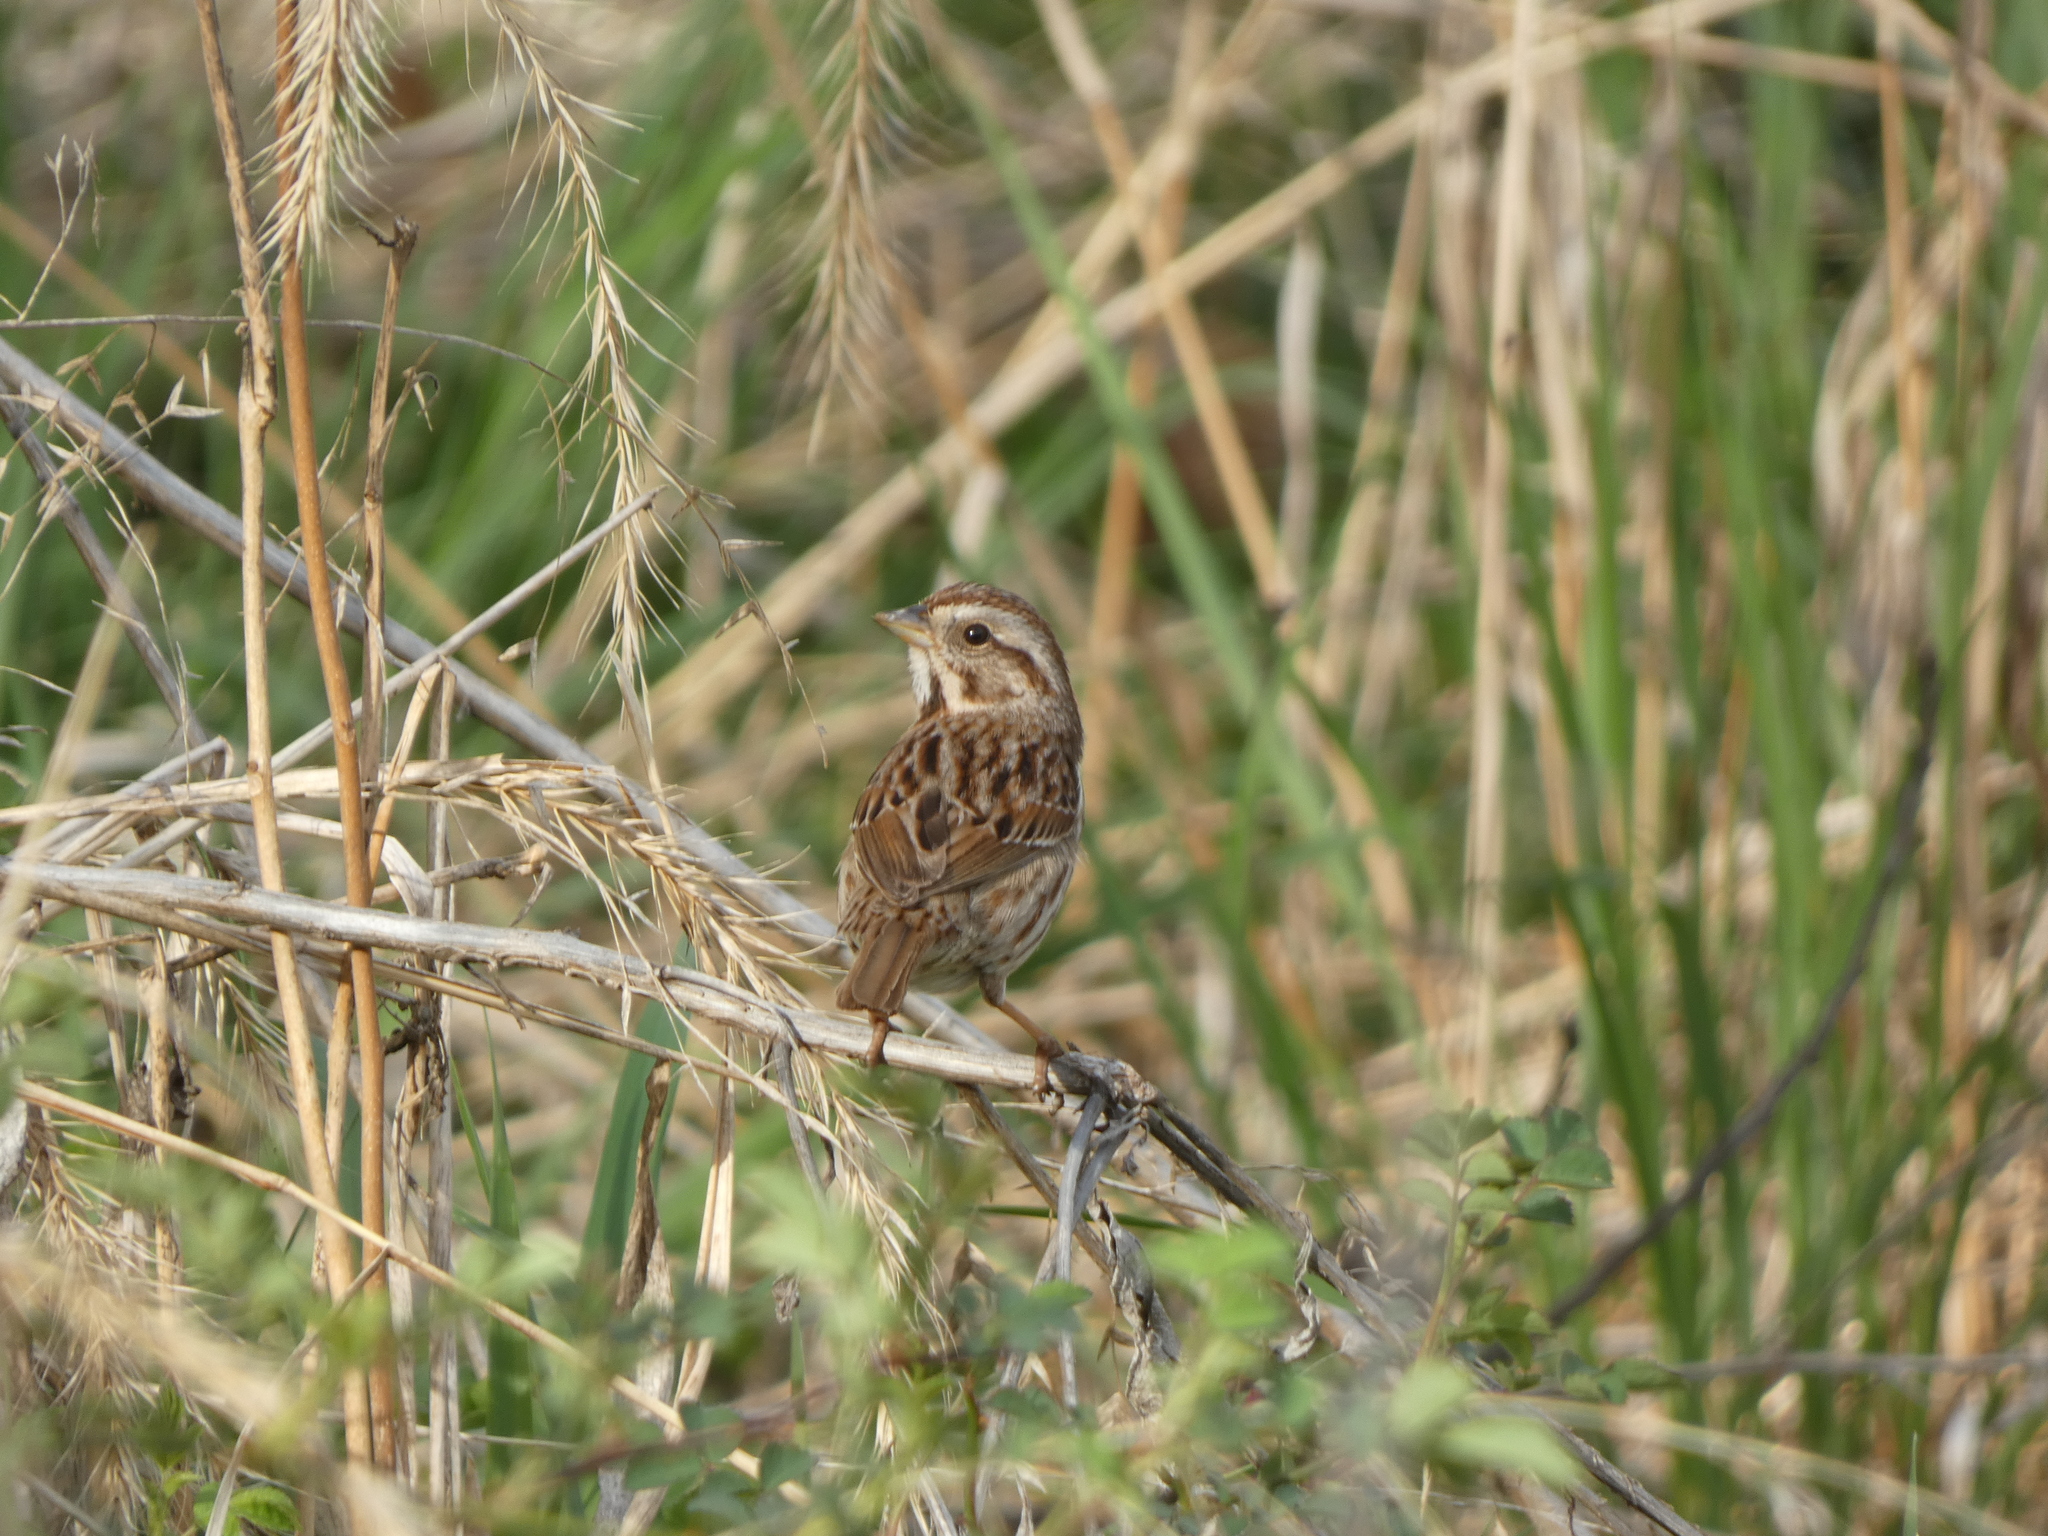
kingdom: Animalia
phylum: Chordata
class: Aves
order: Passeriformes
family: Passerellidae
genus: Melospiza
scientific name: Melospiza melodia
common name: Song sparrow
